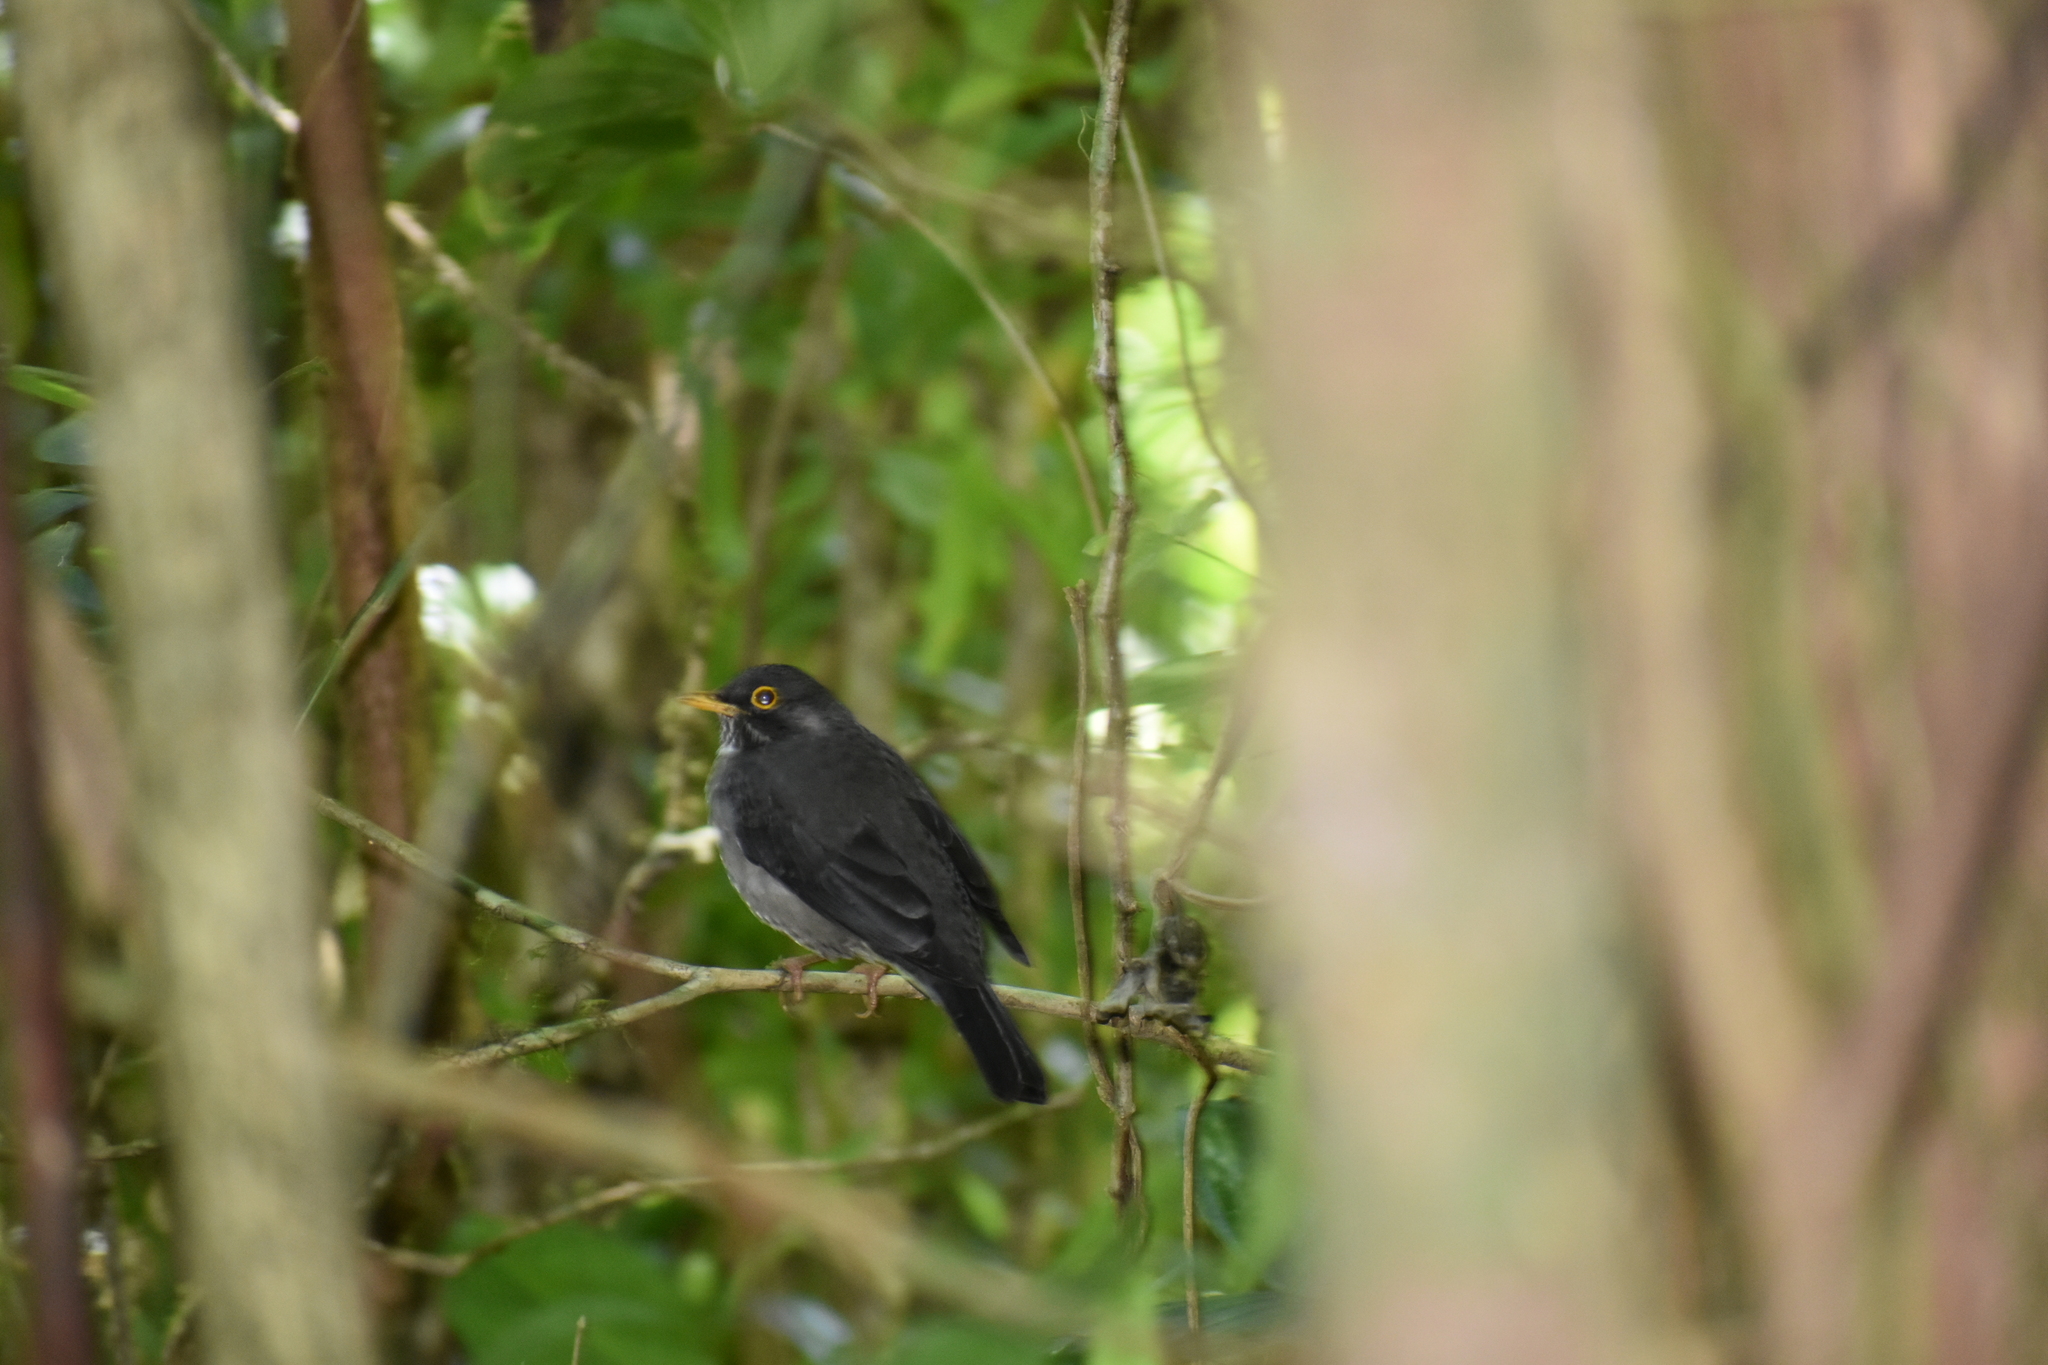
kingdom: Animalia
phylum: Chordata
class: Aves
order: Passeriformes
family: Turdidae
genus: Turdus
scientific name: Turdus assimilis
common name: White-throated thrush
